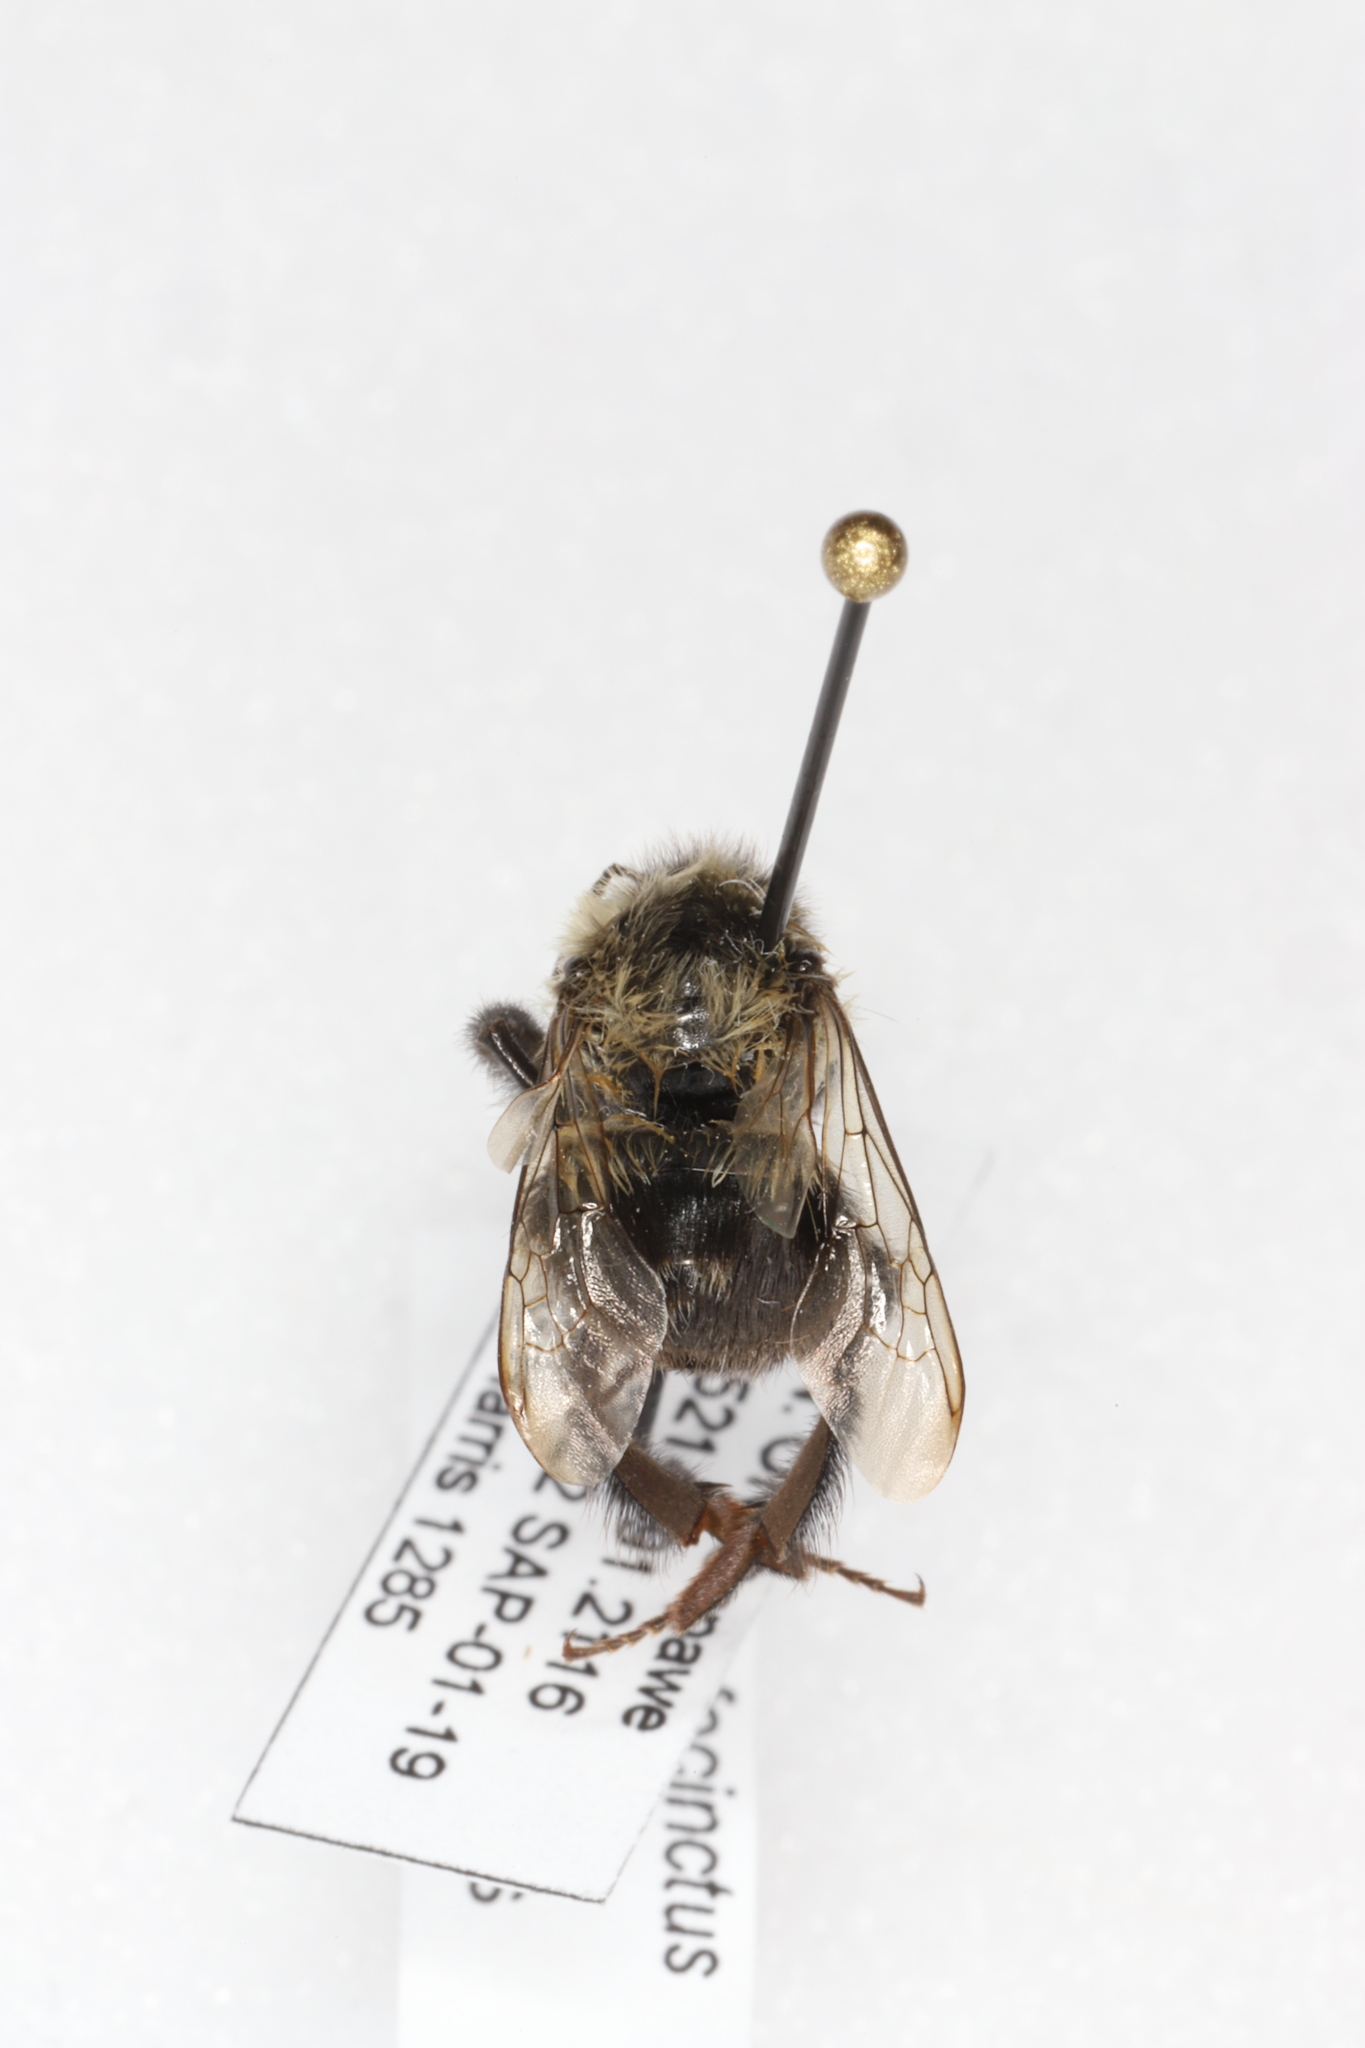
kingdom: Animalia
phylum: Arthropoda
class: Insecta
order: Hymenoptera
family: Apidae
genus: Bombus
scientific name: Bombus impatiens
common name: Common eastern bumble bee
